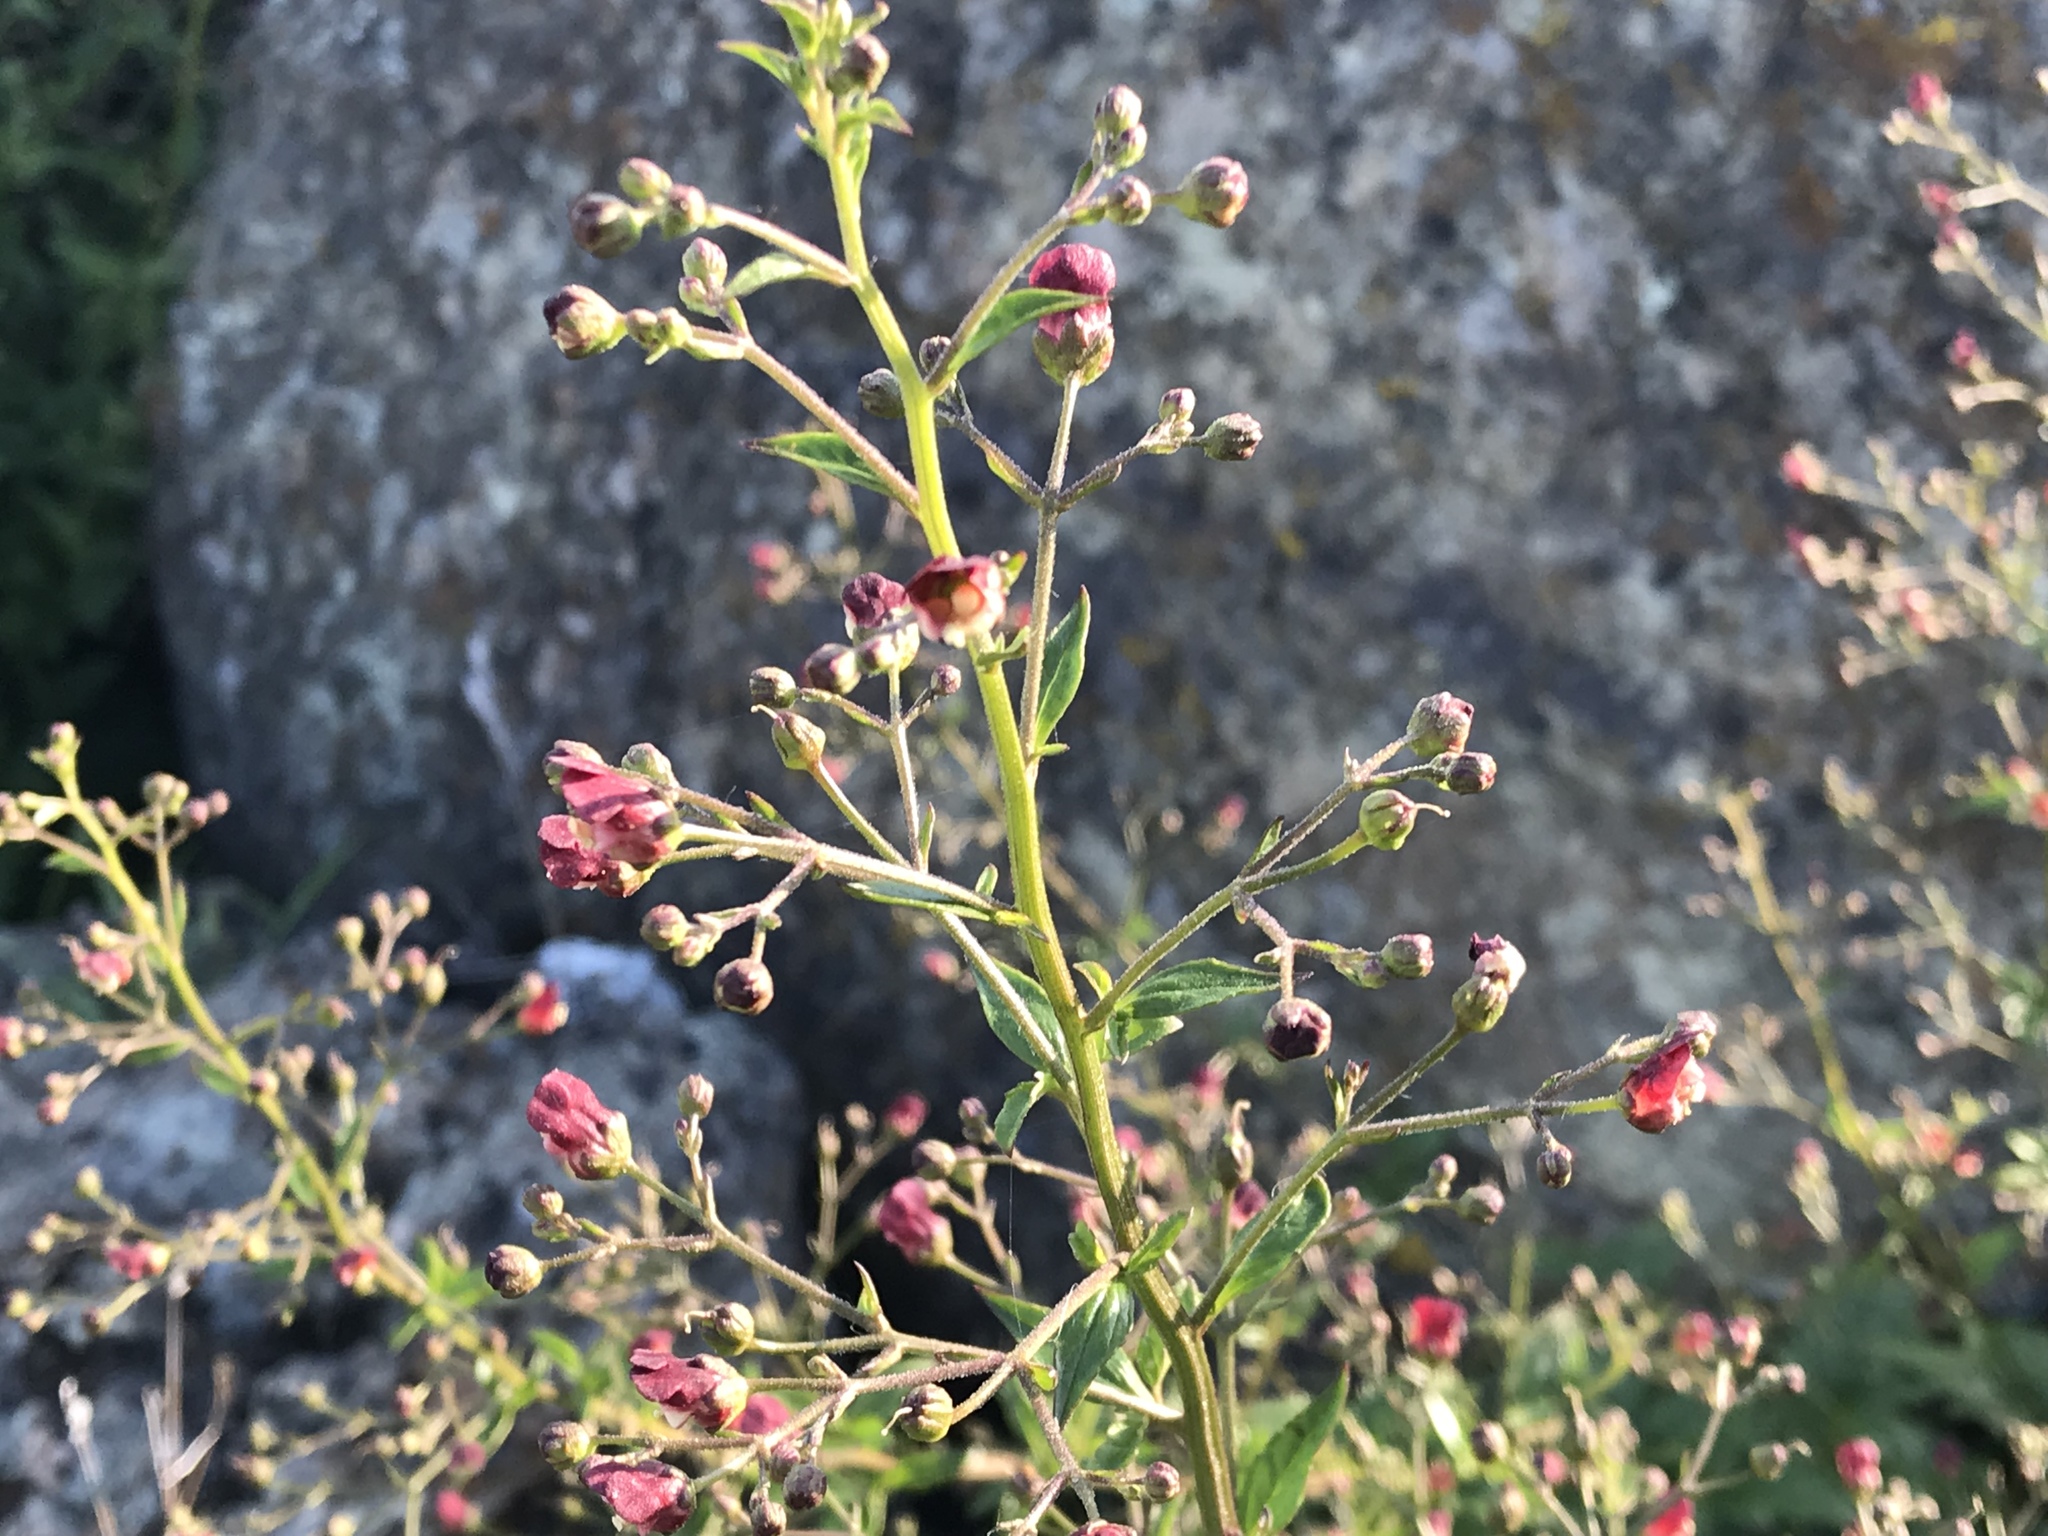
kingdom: Plantae
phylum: Tracheophyta
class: Magnoliopsida
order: Lamiales
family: Scrophulariaceae
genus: Scrophularia
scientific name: Scrophularia californica
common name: California figwort
